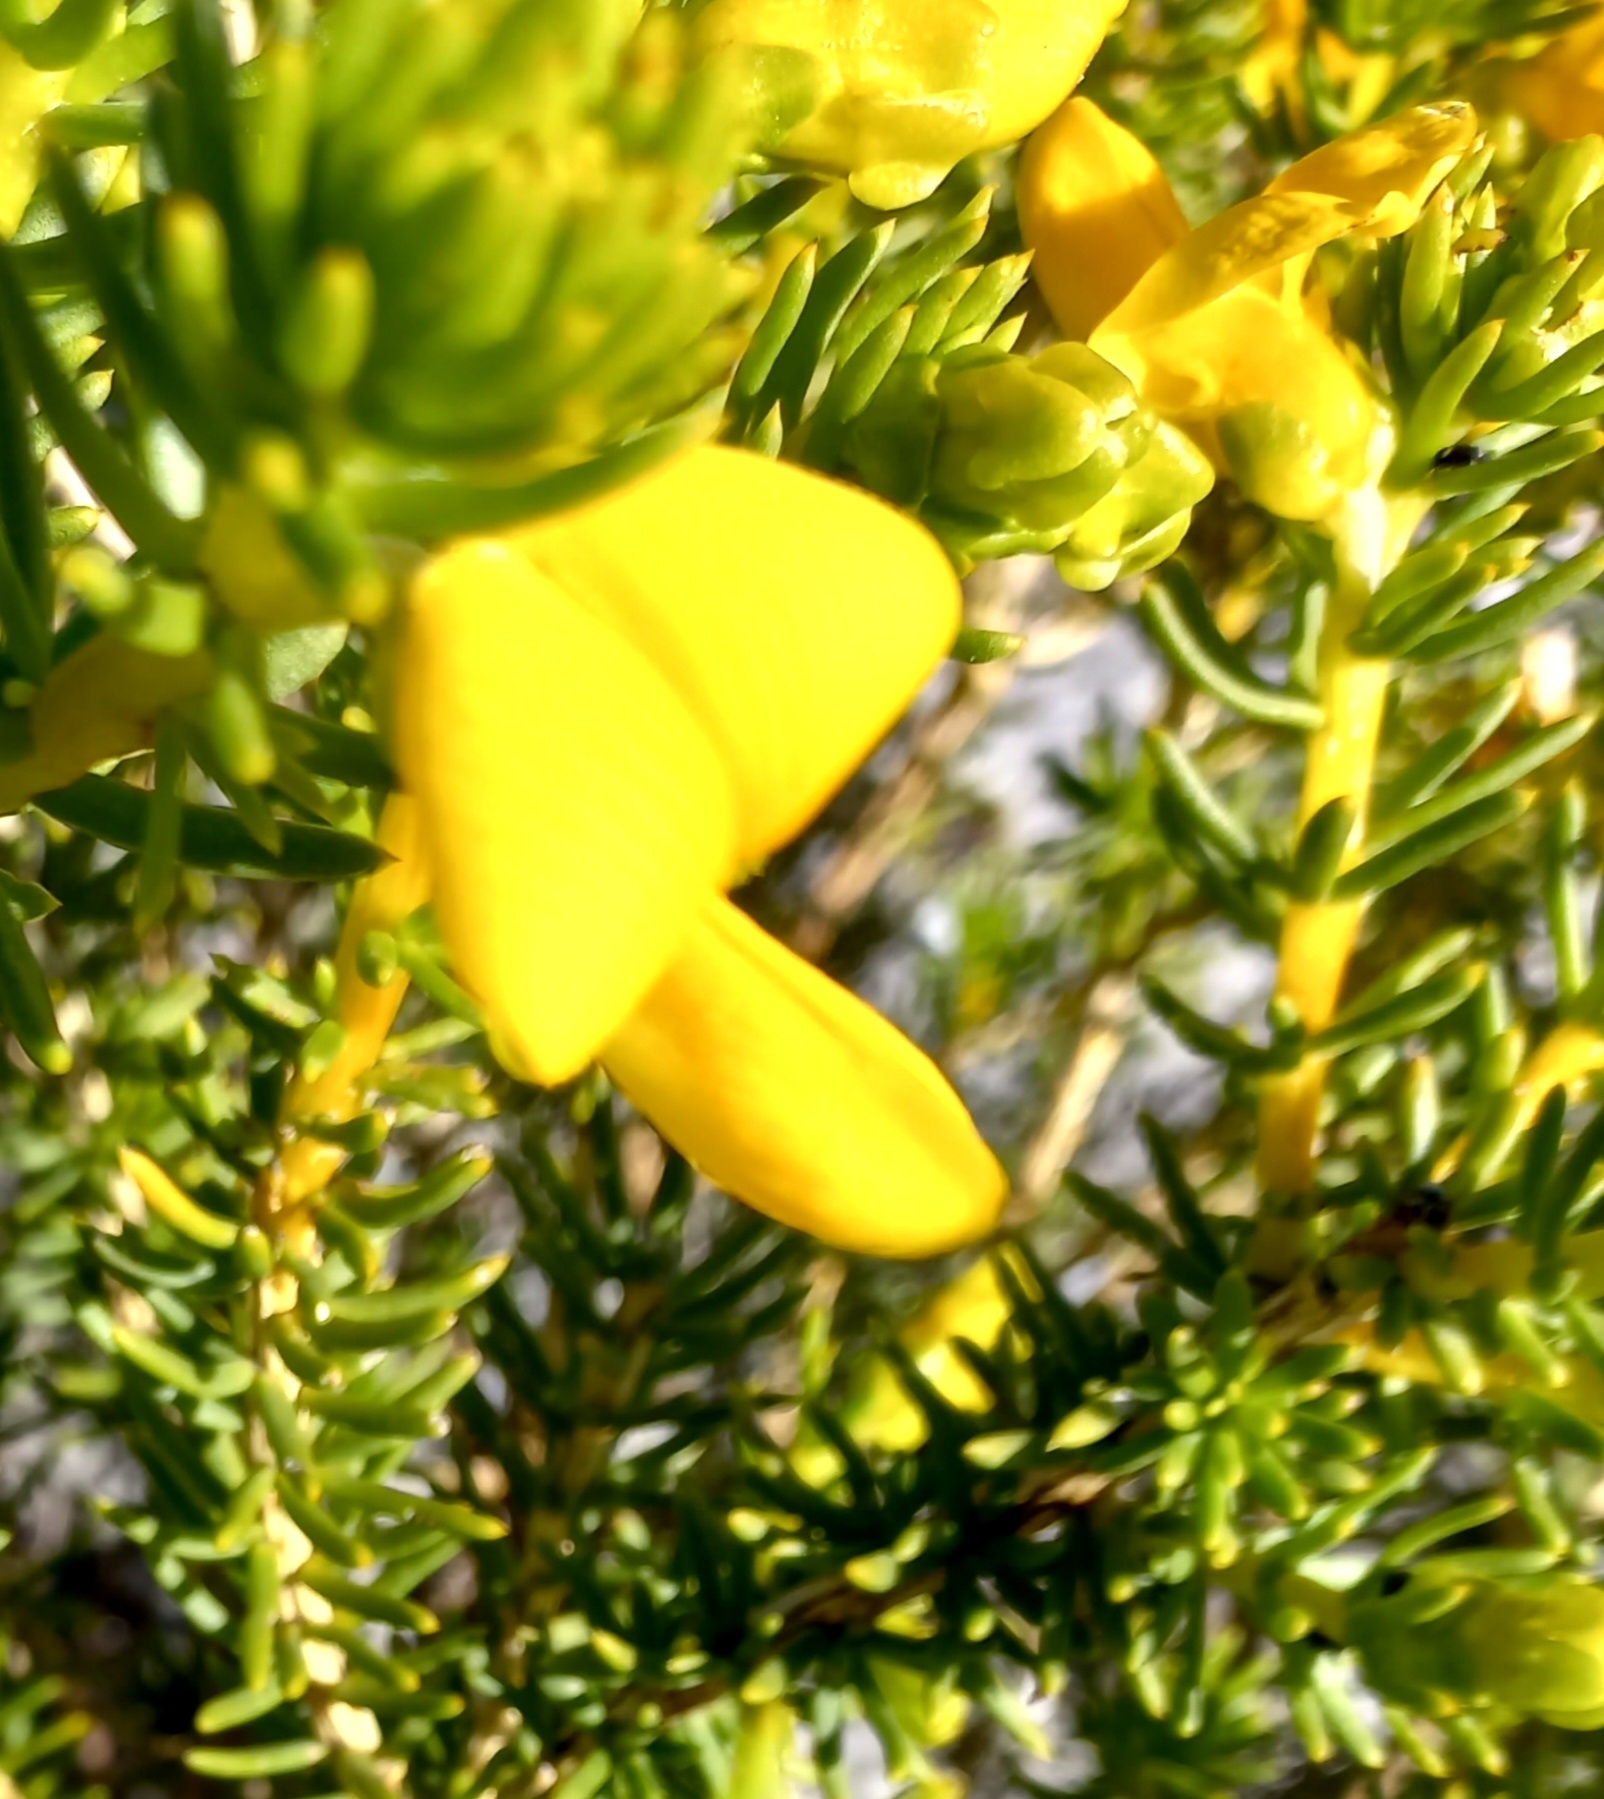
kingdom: Plantae
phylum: Tracheophyta
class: Magnoliopsida
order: Fabales
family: Fabaceae
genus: Aspalathus
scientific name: Aspalathus capensis
